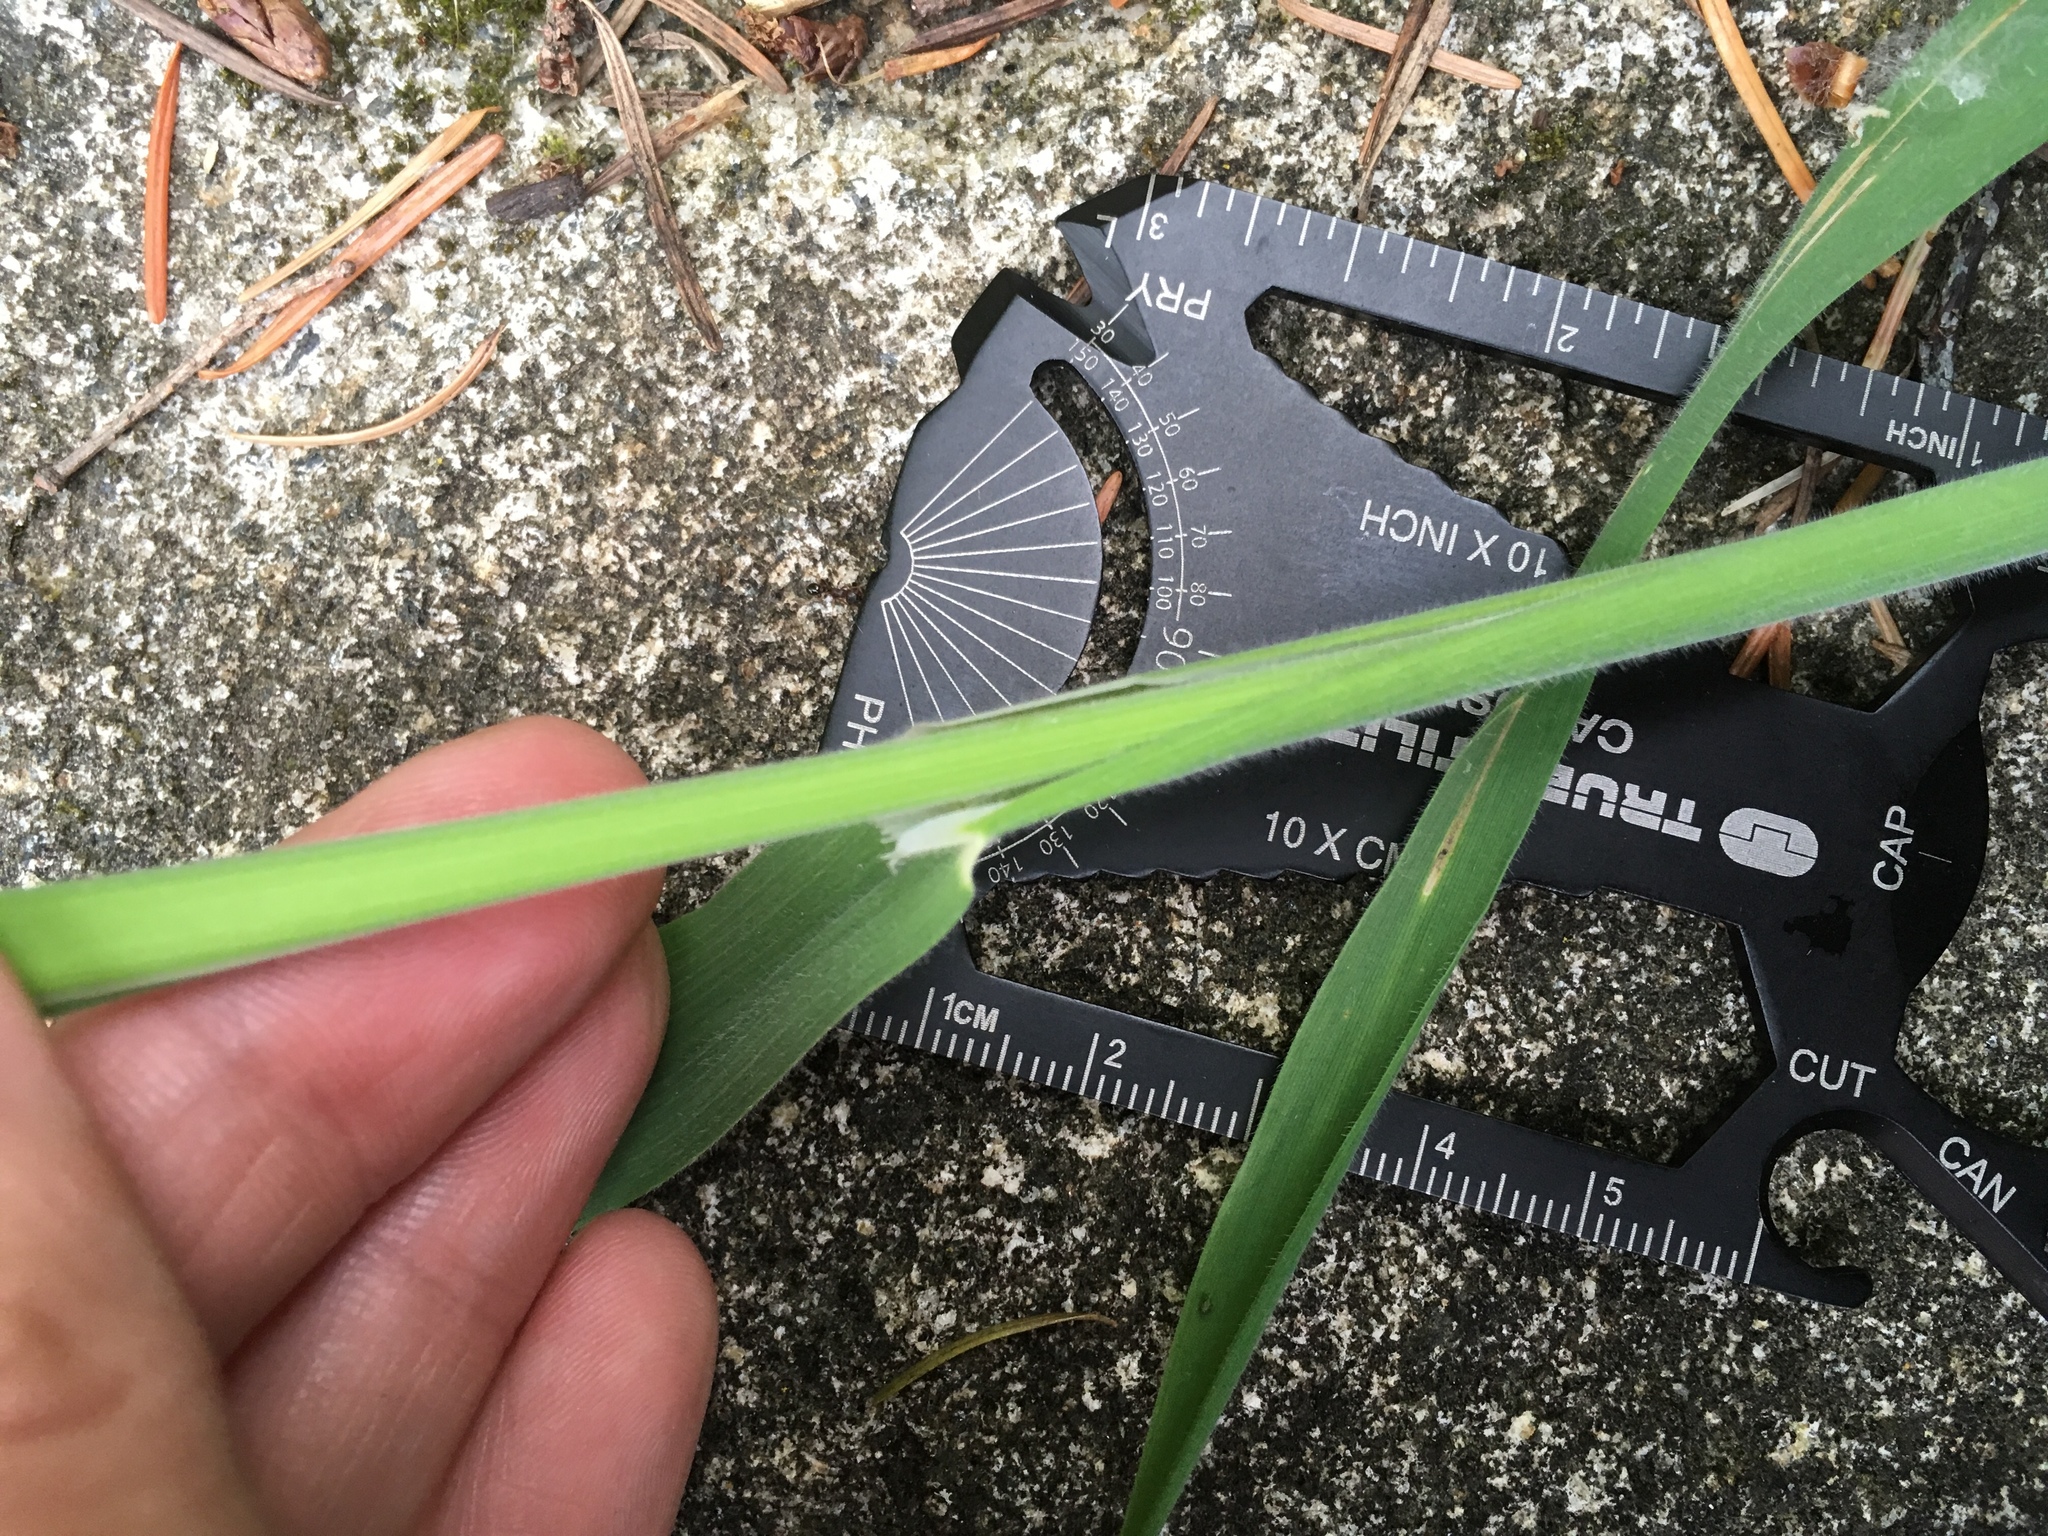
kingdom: Plantae
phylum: Tracheophyta
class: Liliopsida
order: Poales
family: Poaceae
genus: Holcus
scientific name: Holcus lanatus
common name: Yorkshire-fog
